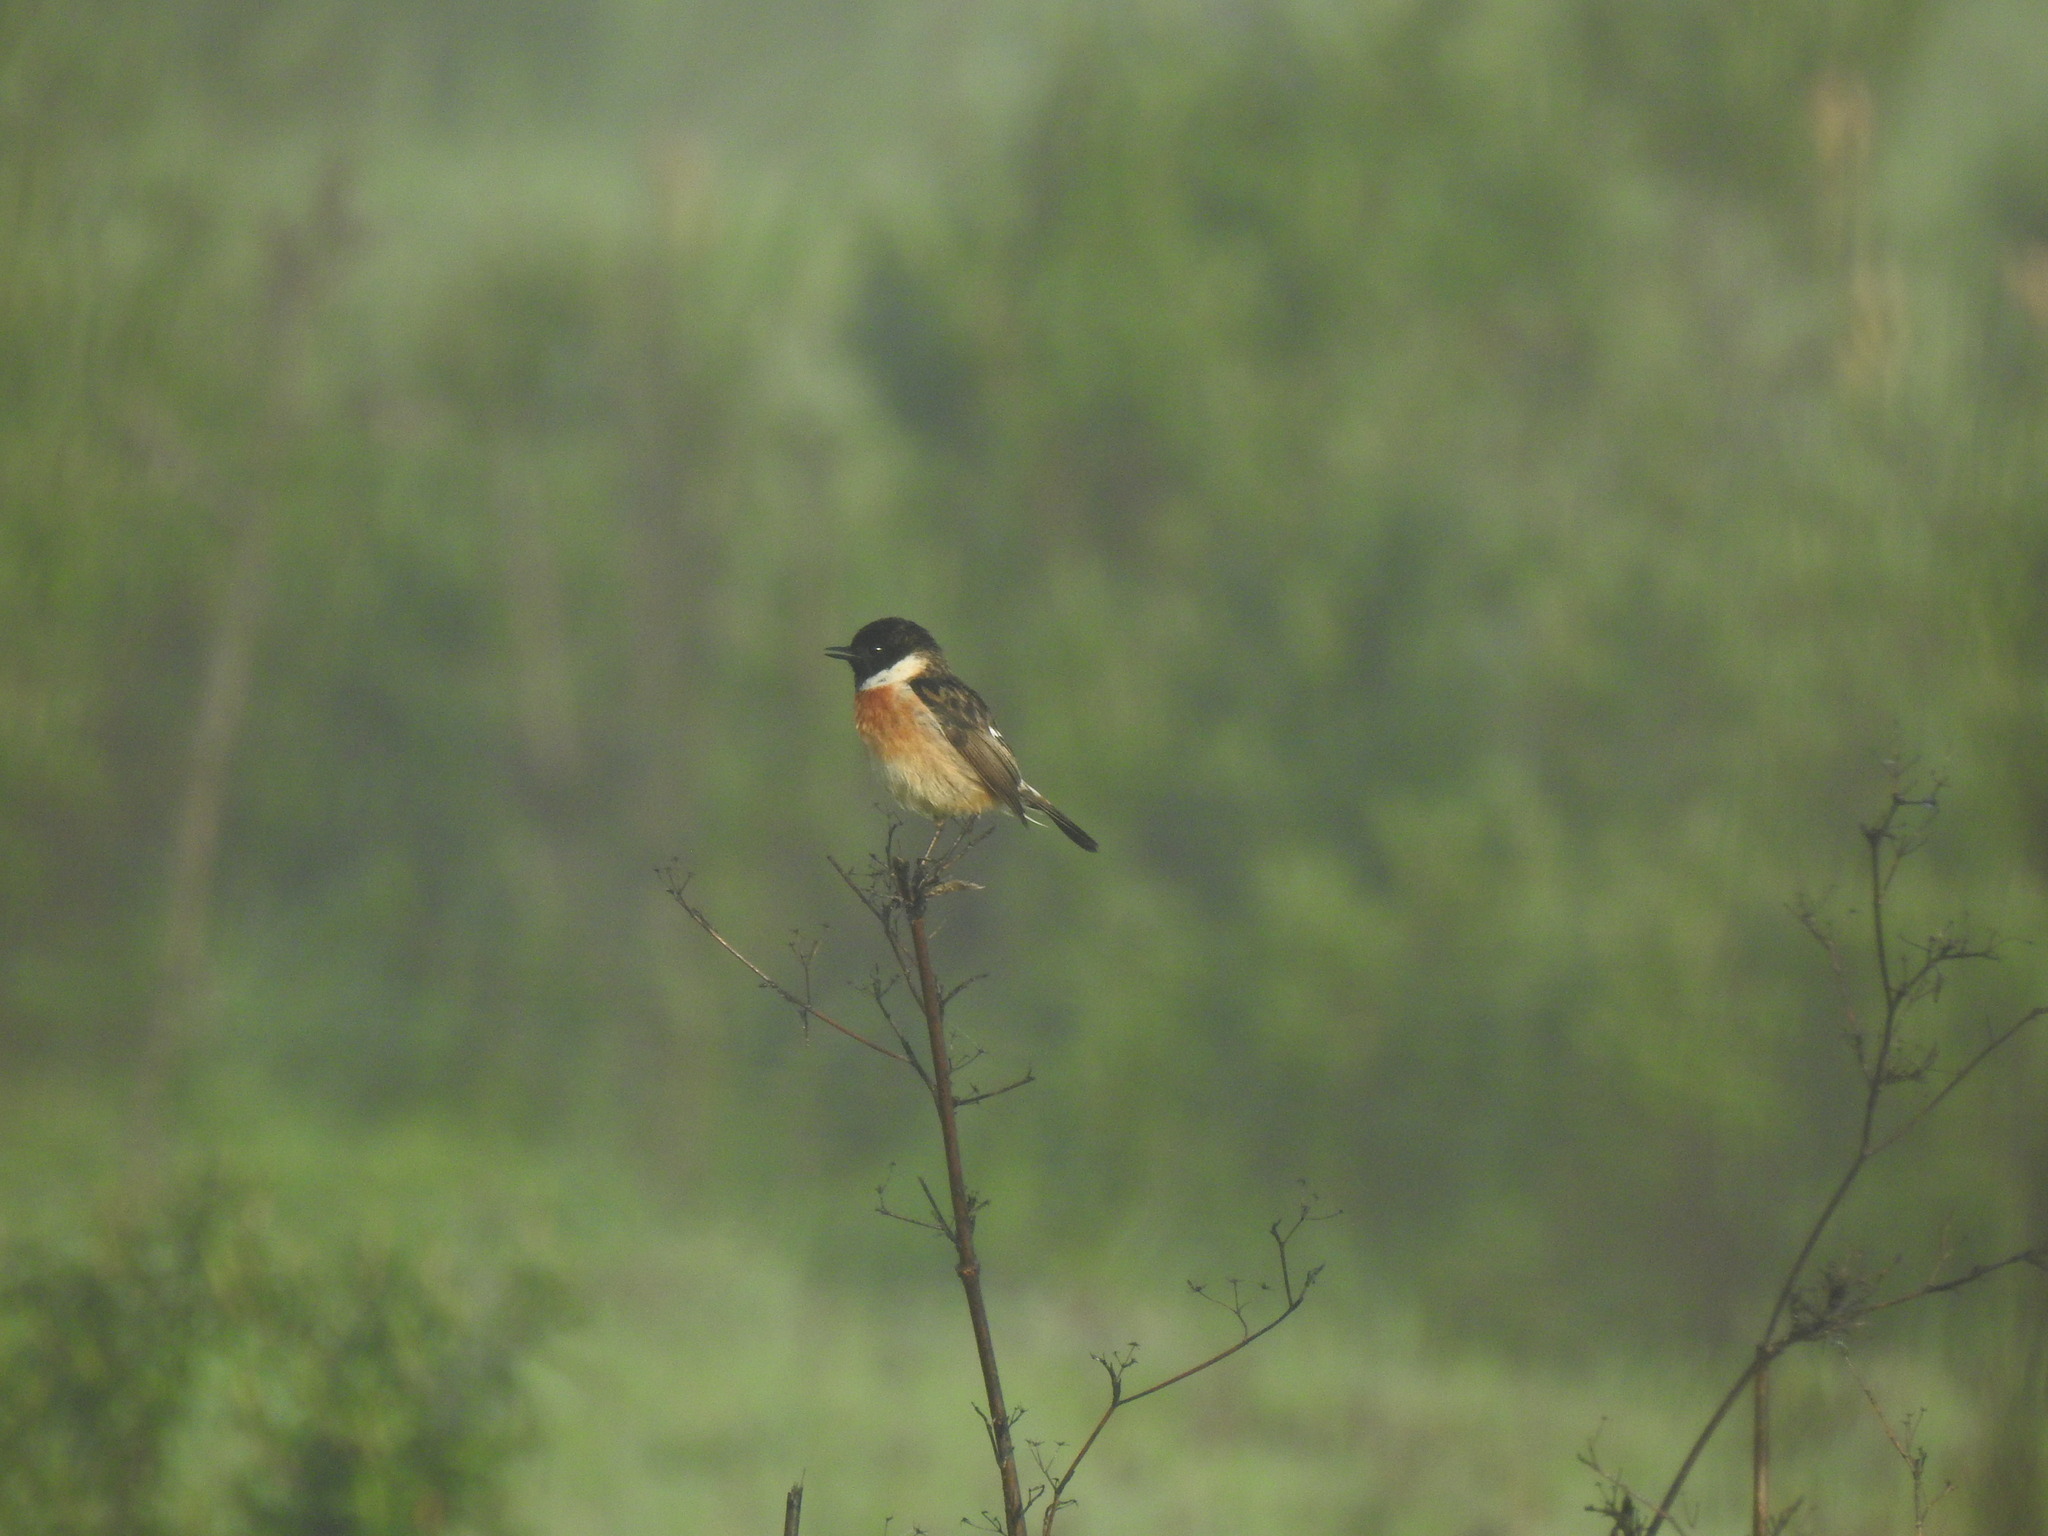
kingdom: Animalia
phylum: Chordata
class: Aves
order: Passeriformes
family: Muscicapidae
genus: Saxicola
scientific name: Saxicola rubicola
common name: European stonechat
